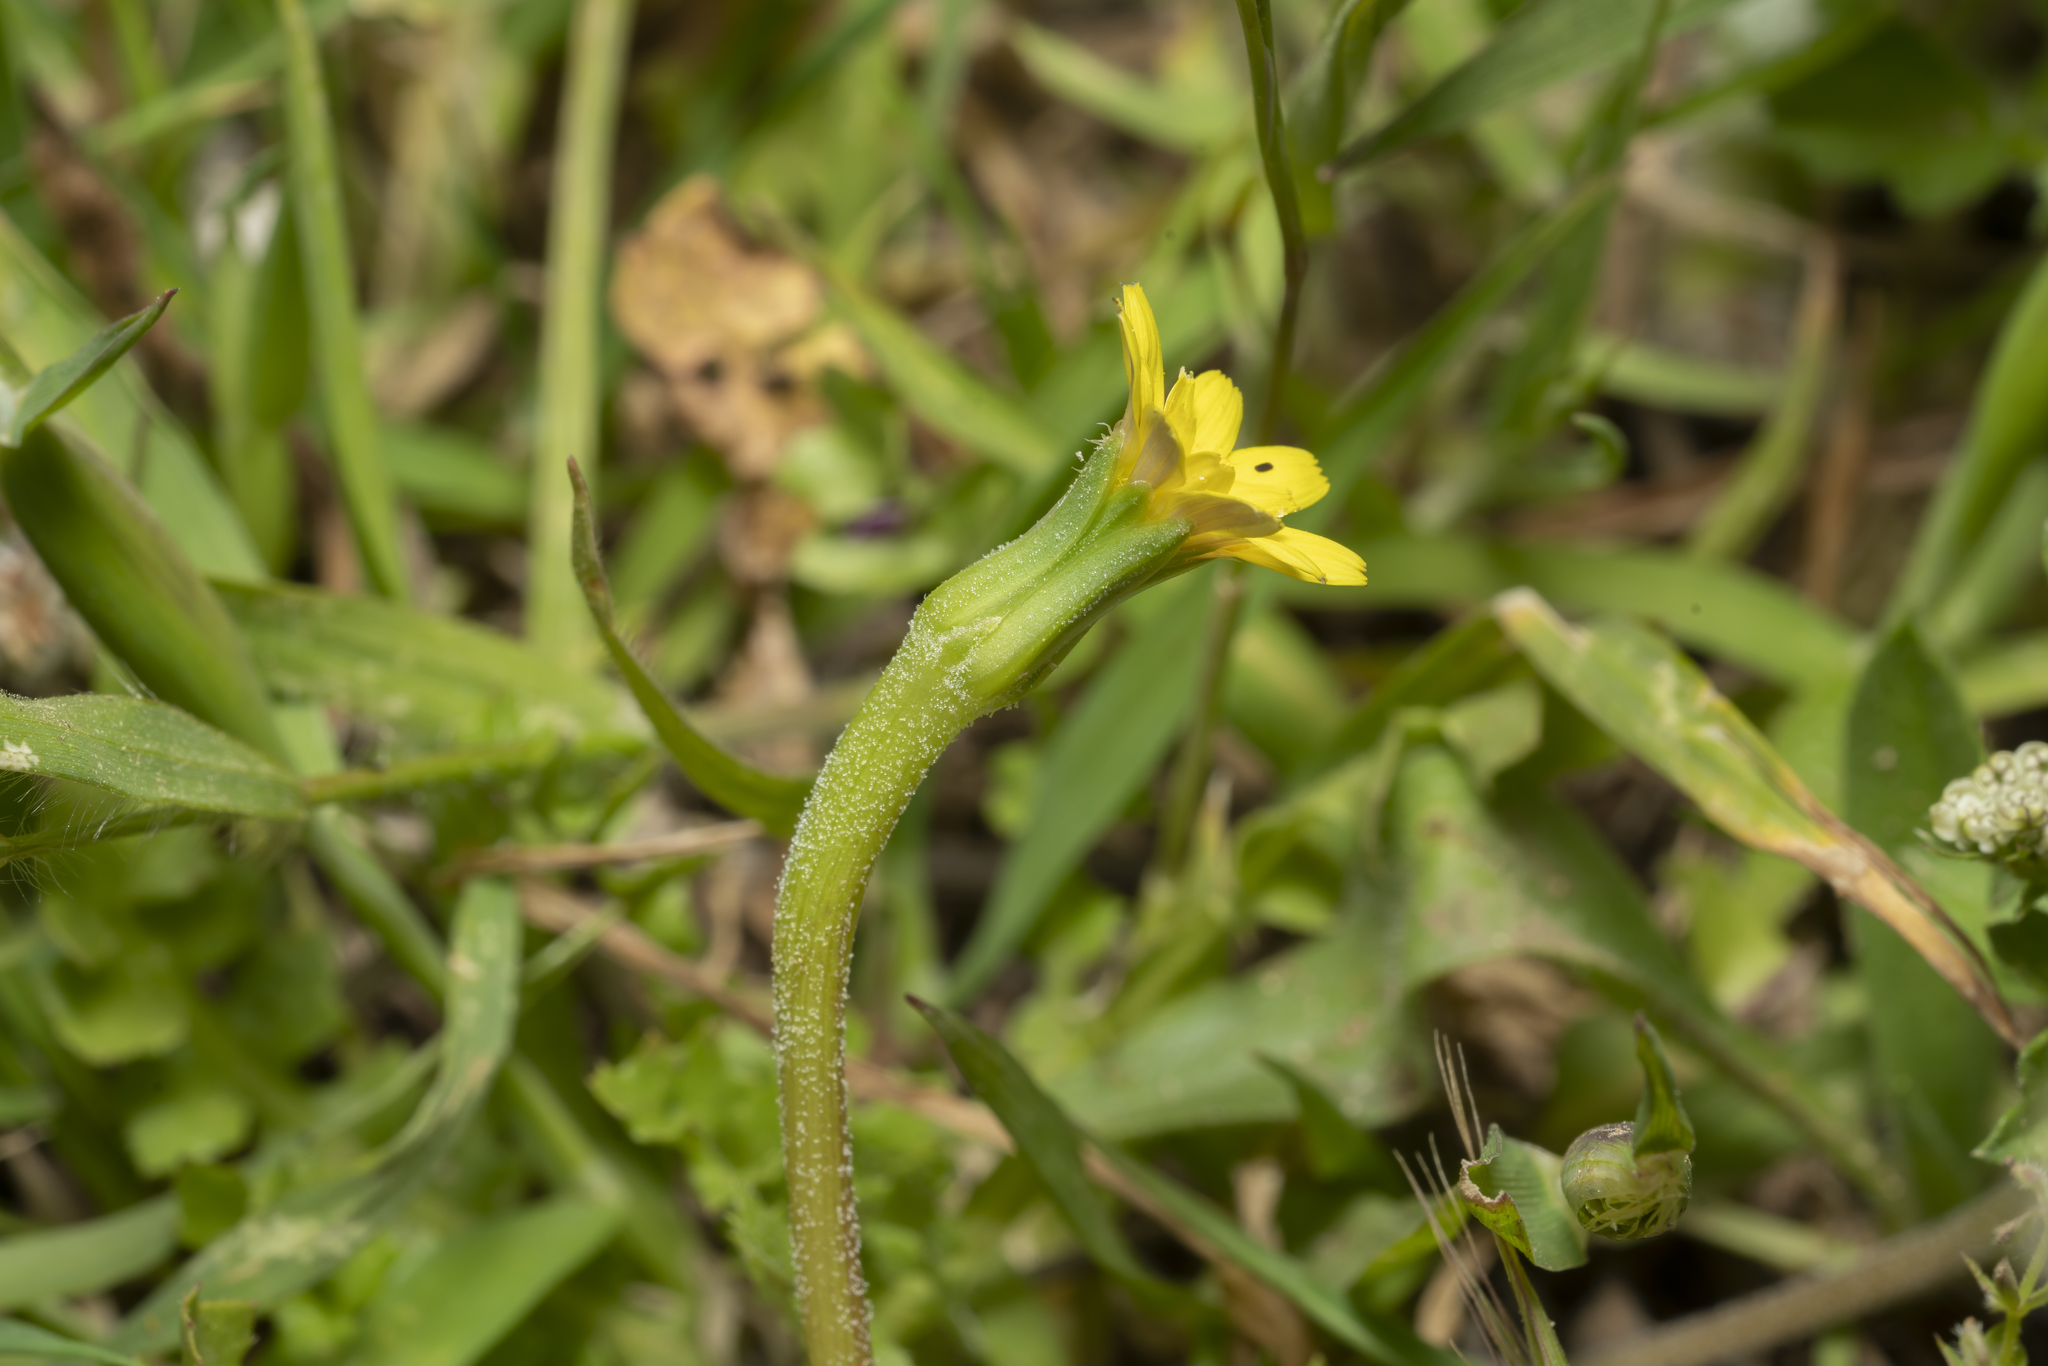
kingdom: Plantae
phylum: Tracheophyta
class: Magnoliopsida
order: Asterales
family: Asteraceae
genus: Hyoseris
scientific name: Hyoseris scabra
